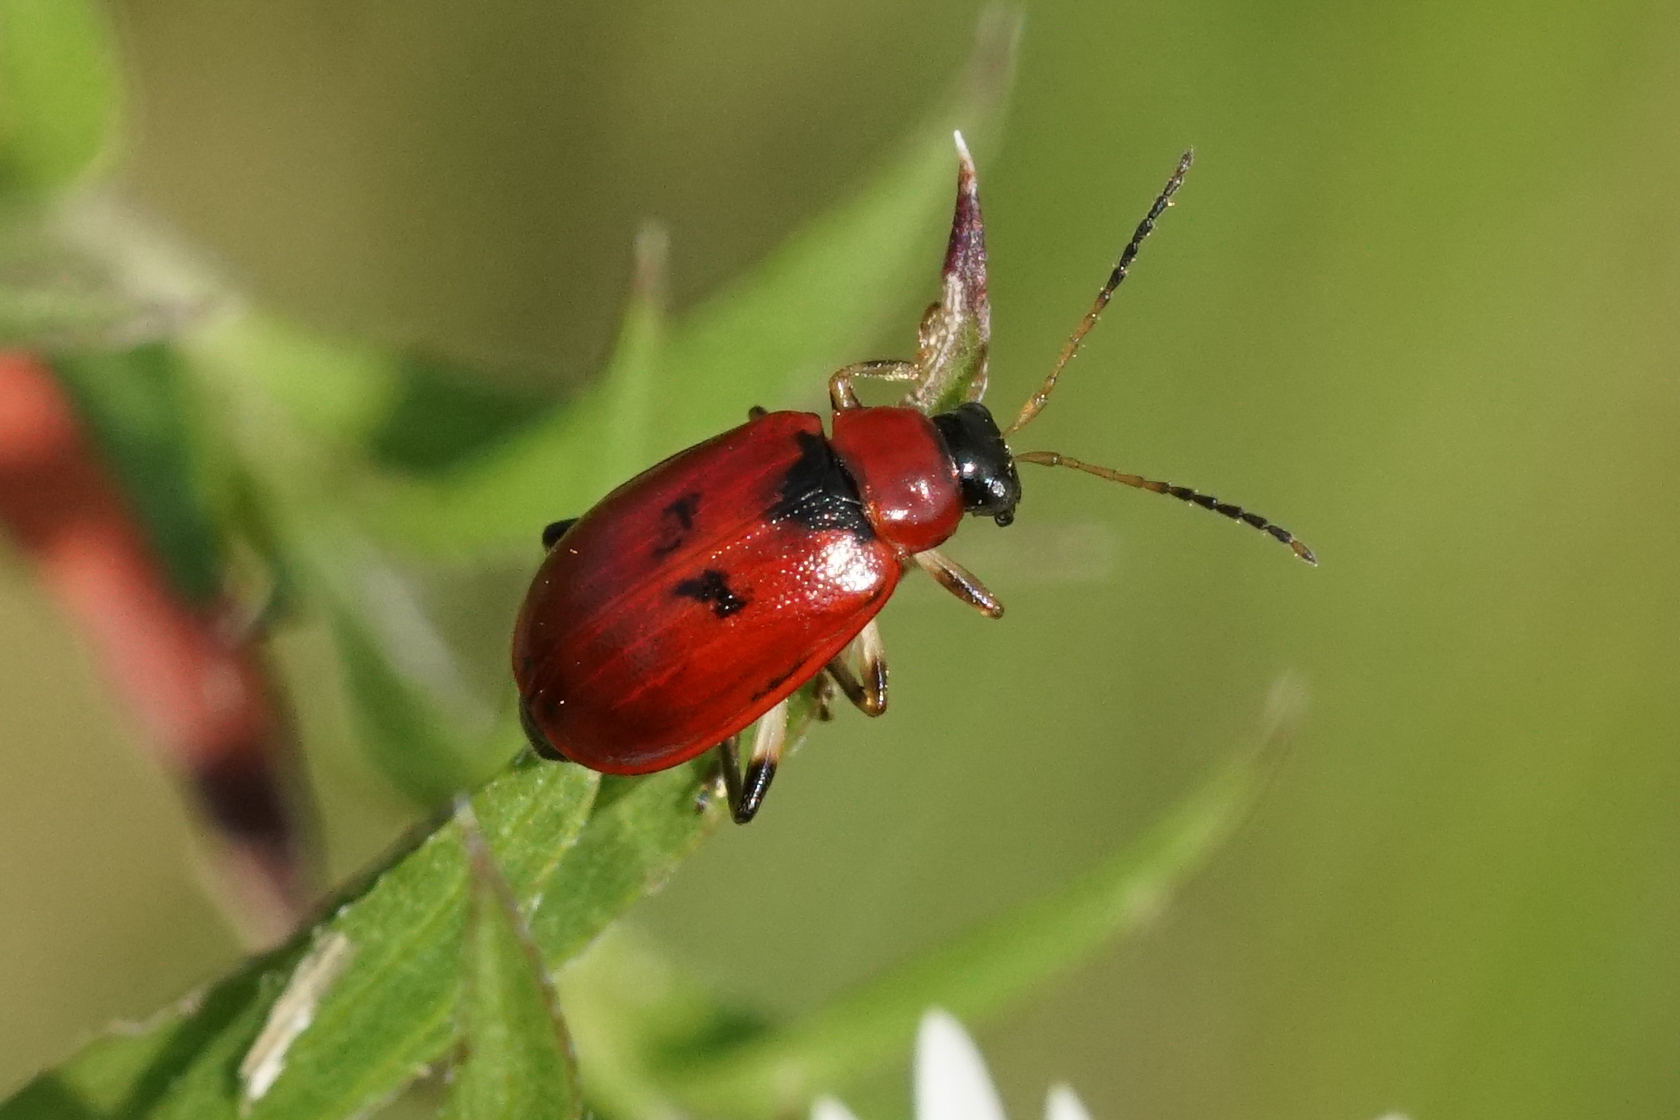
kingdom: Animalia
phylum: Arthropoda
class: Insecta
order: Coleoptera
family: Chrysomelidae
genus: Cerotoma
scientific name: Cerotoma trifurcata
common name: Bean leaf beetle
